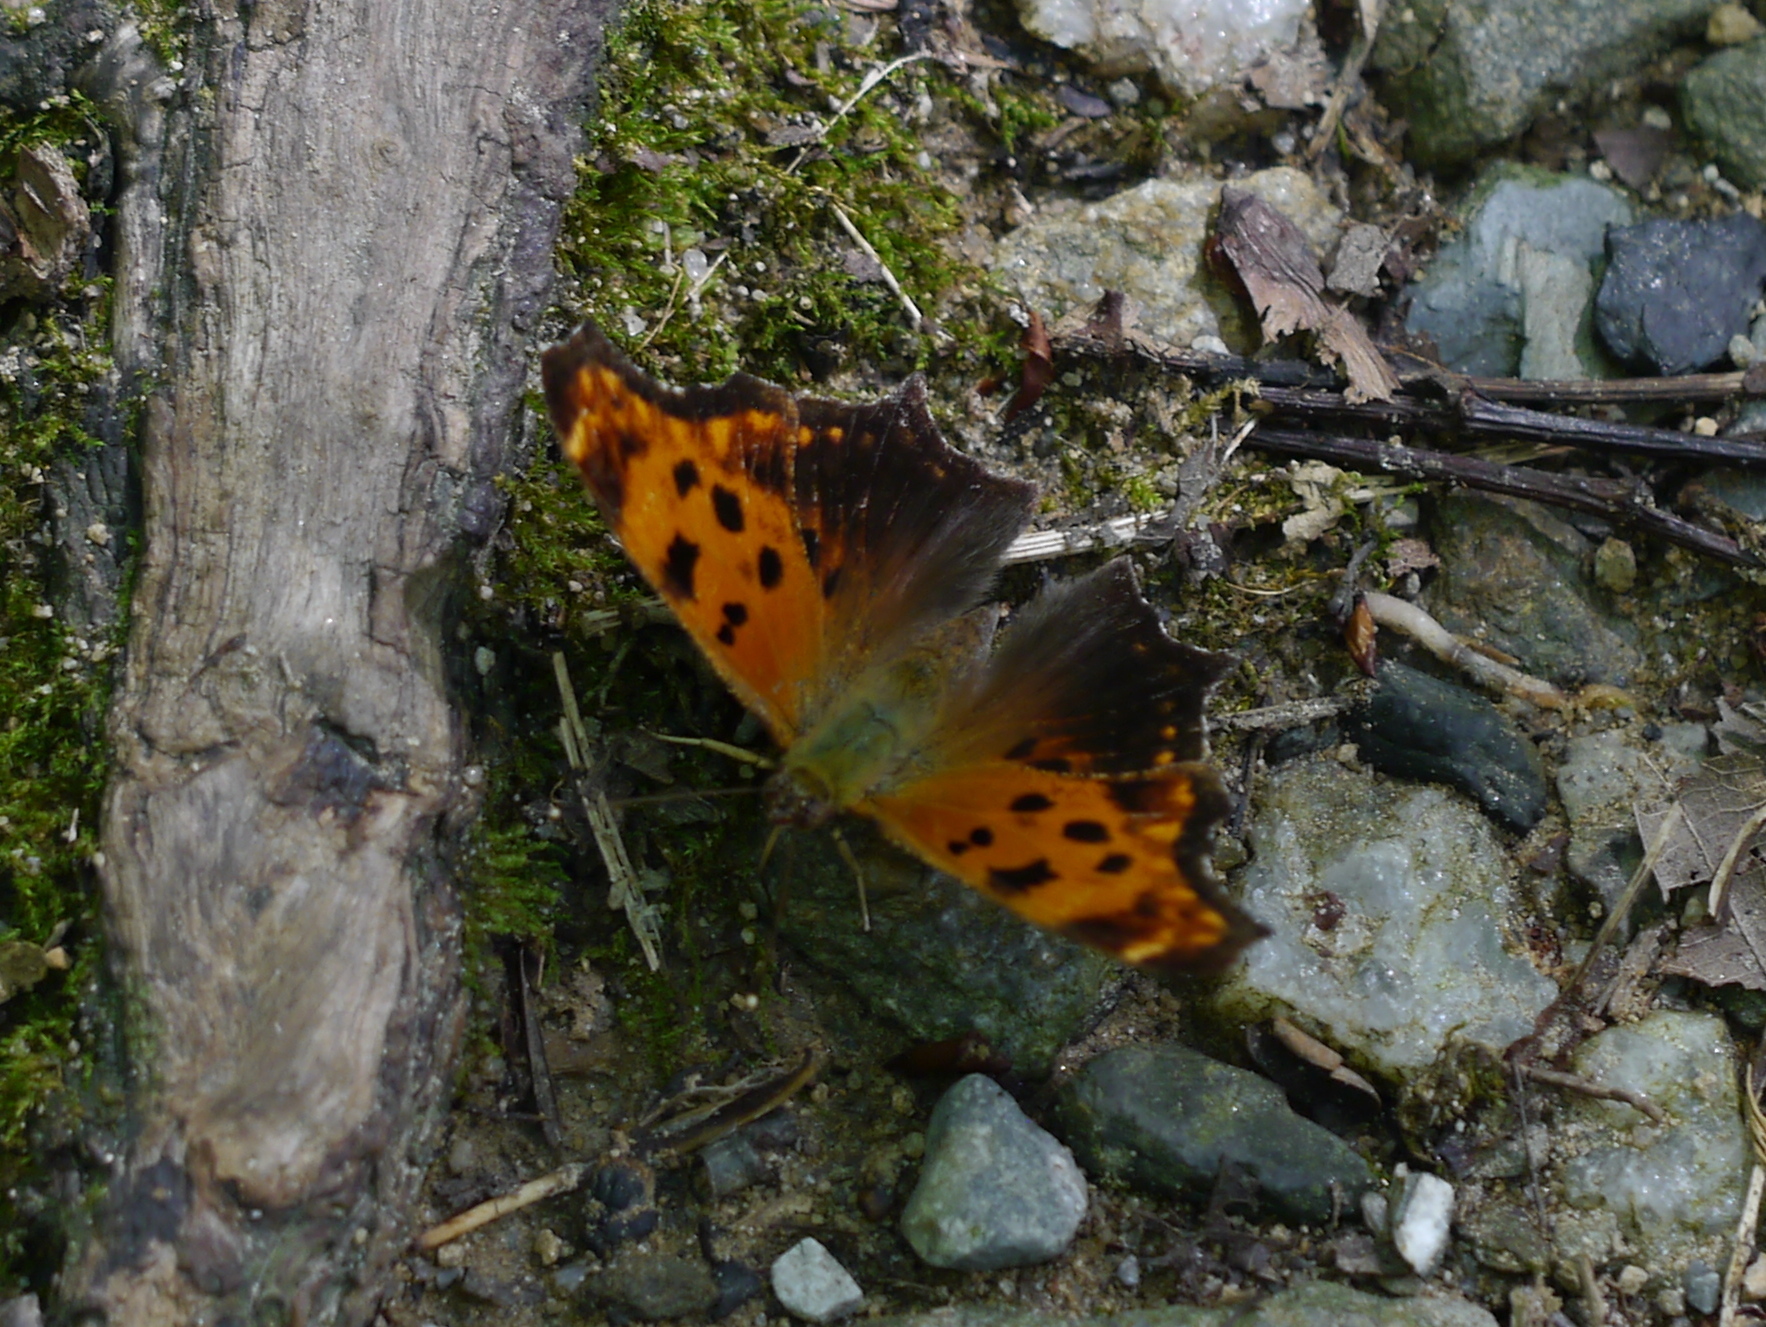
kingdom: Animalia
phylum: Arthropoda
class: Insecta
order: Lepidoptera
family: Nymphalidae
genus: Polygonia
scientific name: Polygonia comma
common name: Eastern comma
